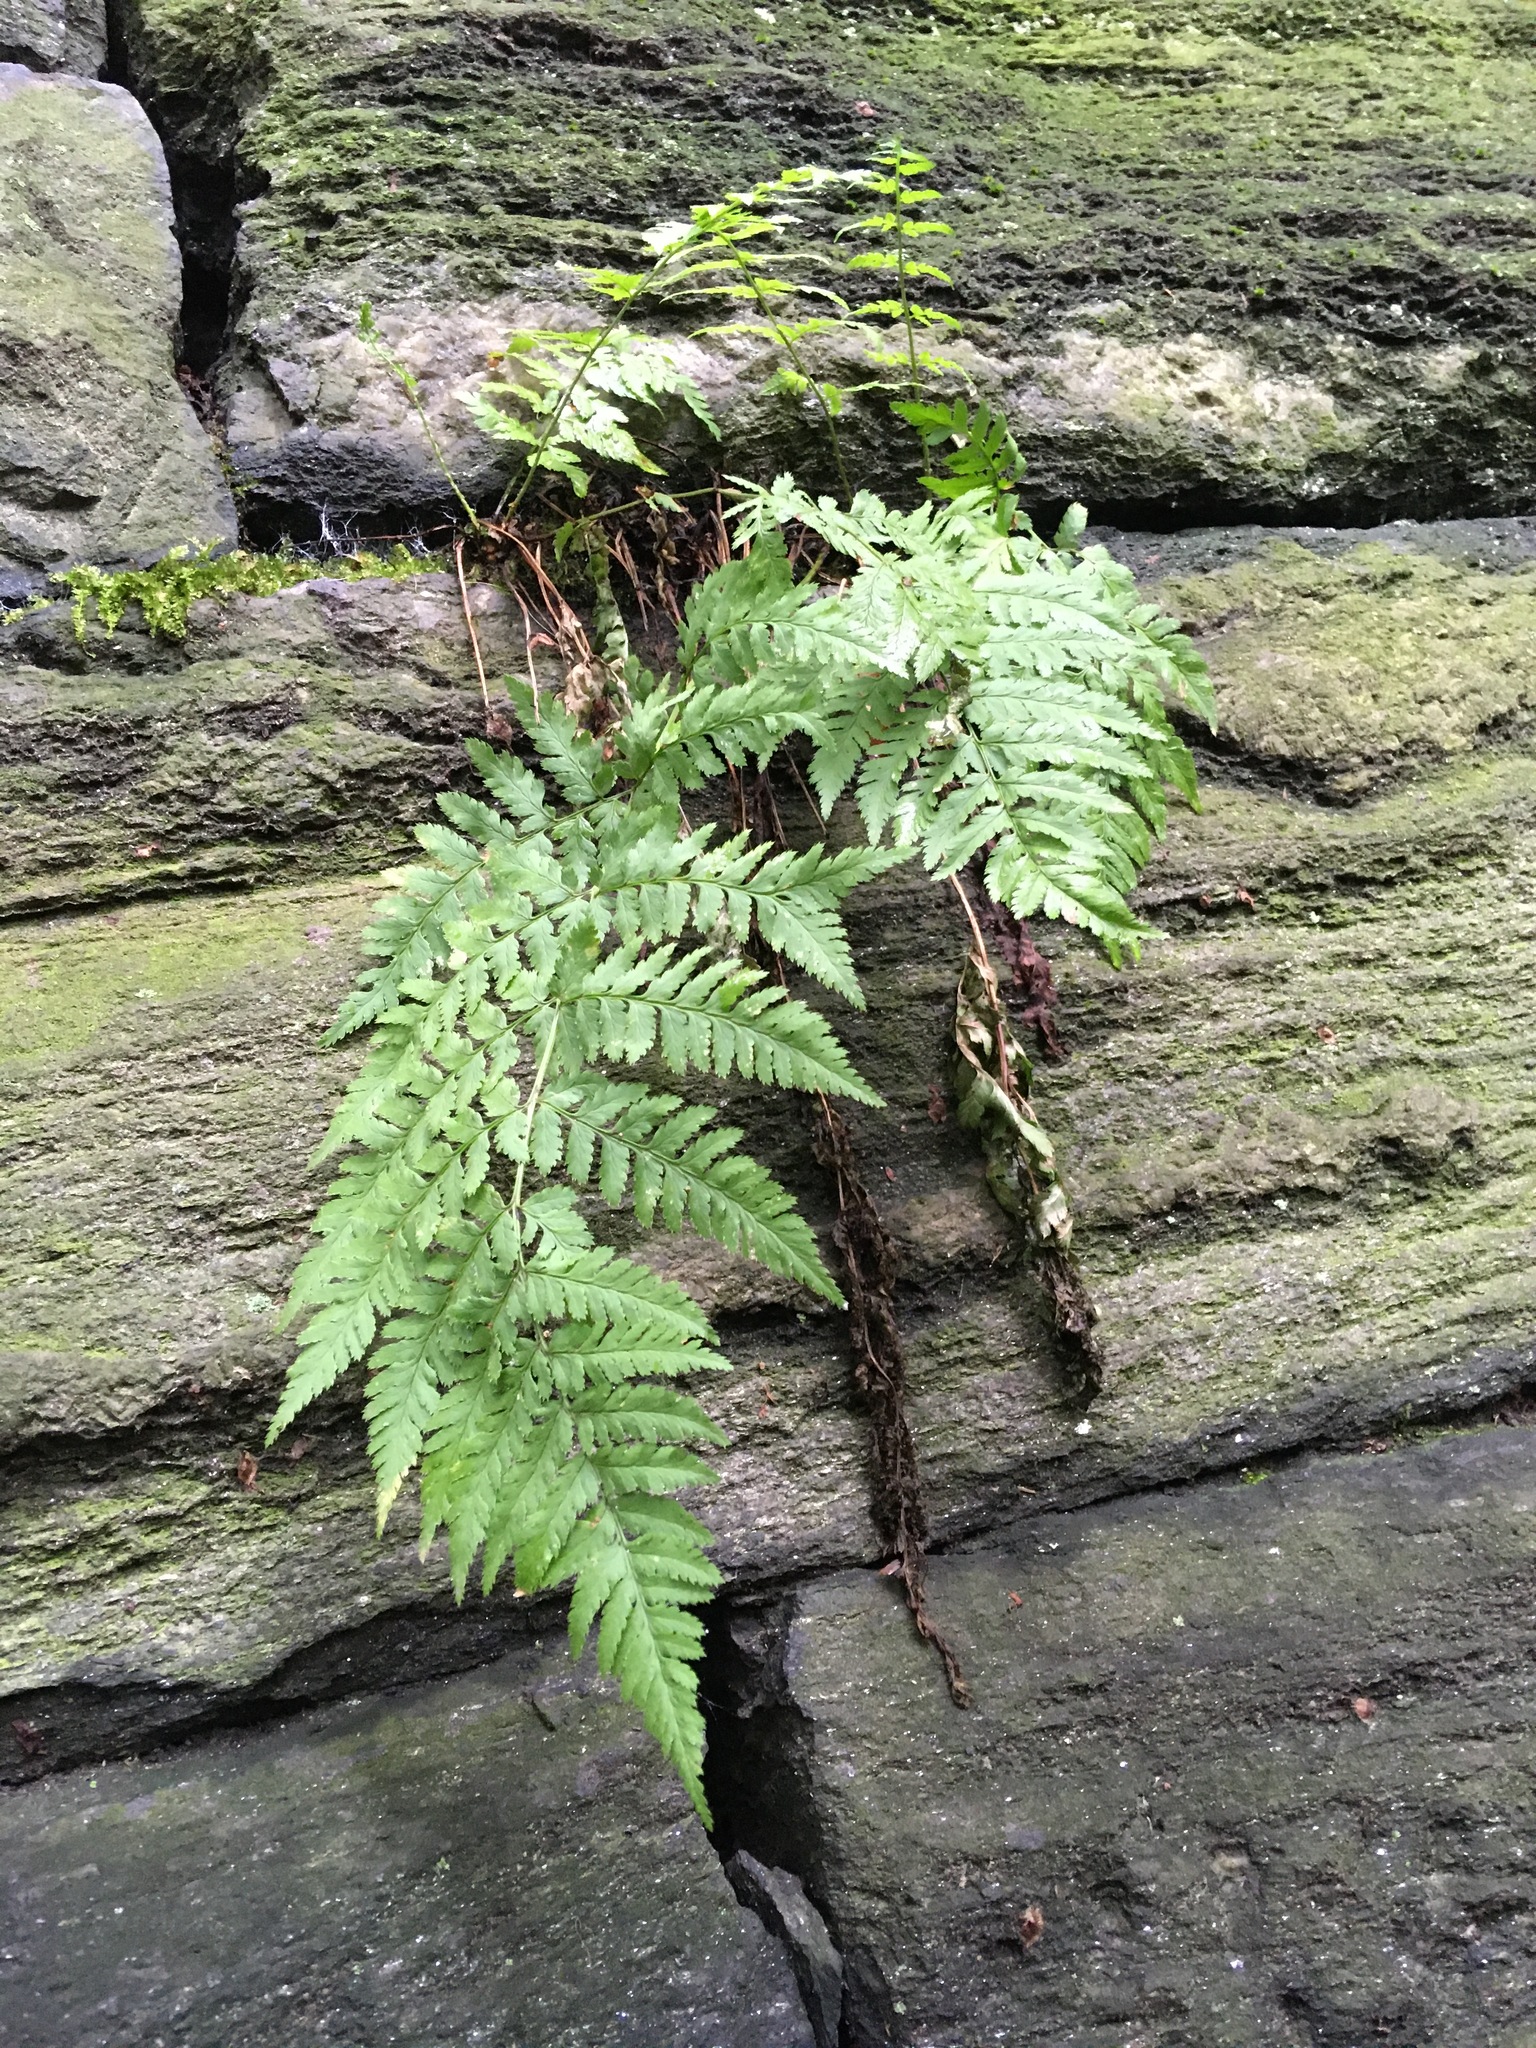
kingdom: Plantae
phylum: Tracheophyta
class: Polypodiopsida
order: Polypodiales
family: Dryopteridaceae
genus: Dryopteris
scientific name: Dryopteris carthusiana
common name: Narrow buckler-fern
